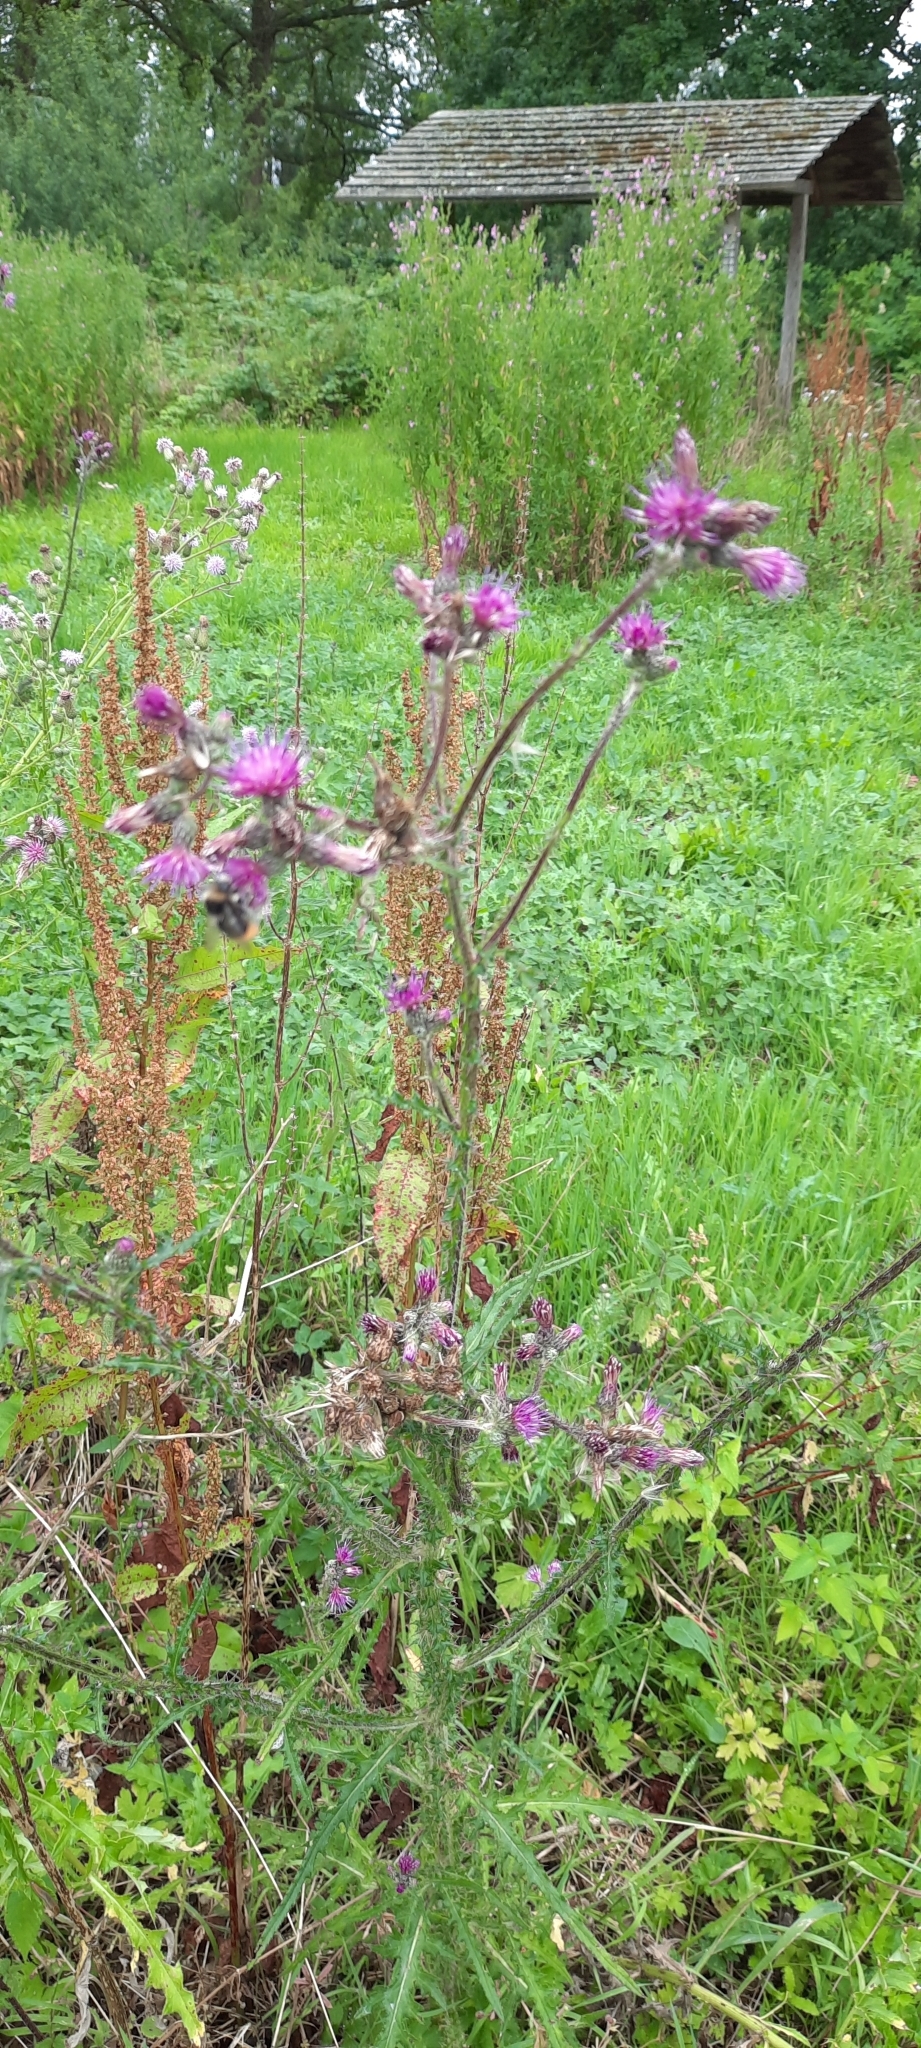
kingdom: Plantae
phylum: Tracheophyta
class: Magnoliopsida
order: Asterales
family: Asteraceae
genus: Cirsium
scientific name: Cirsium palustre
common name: Marsh thistle
